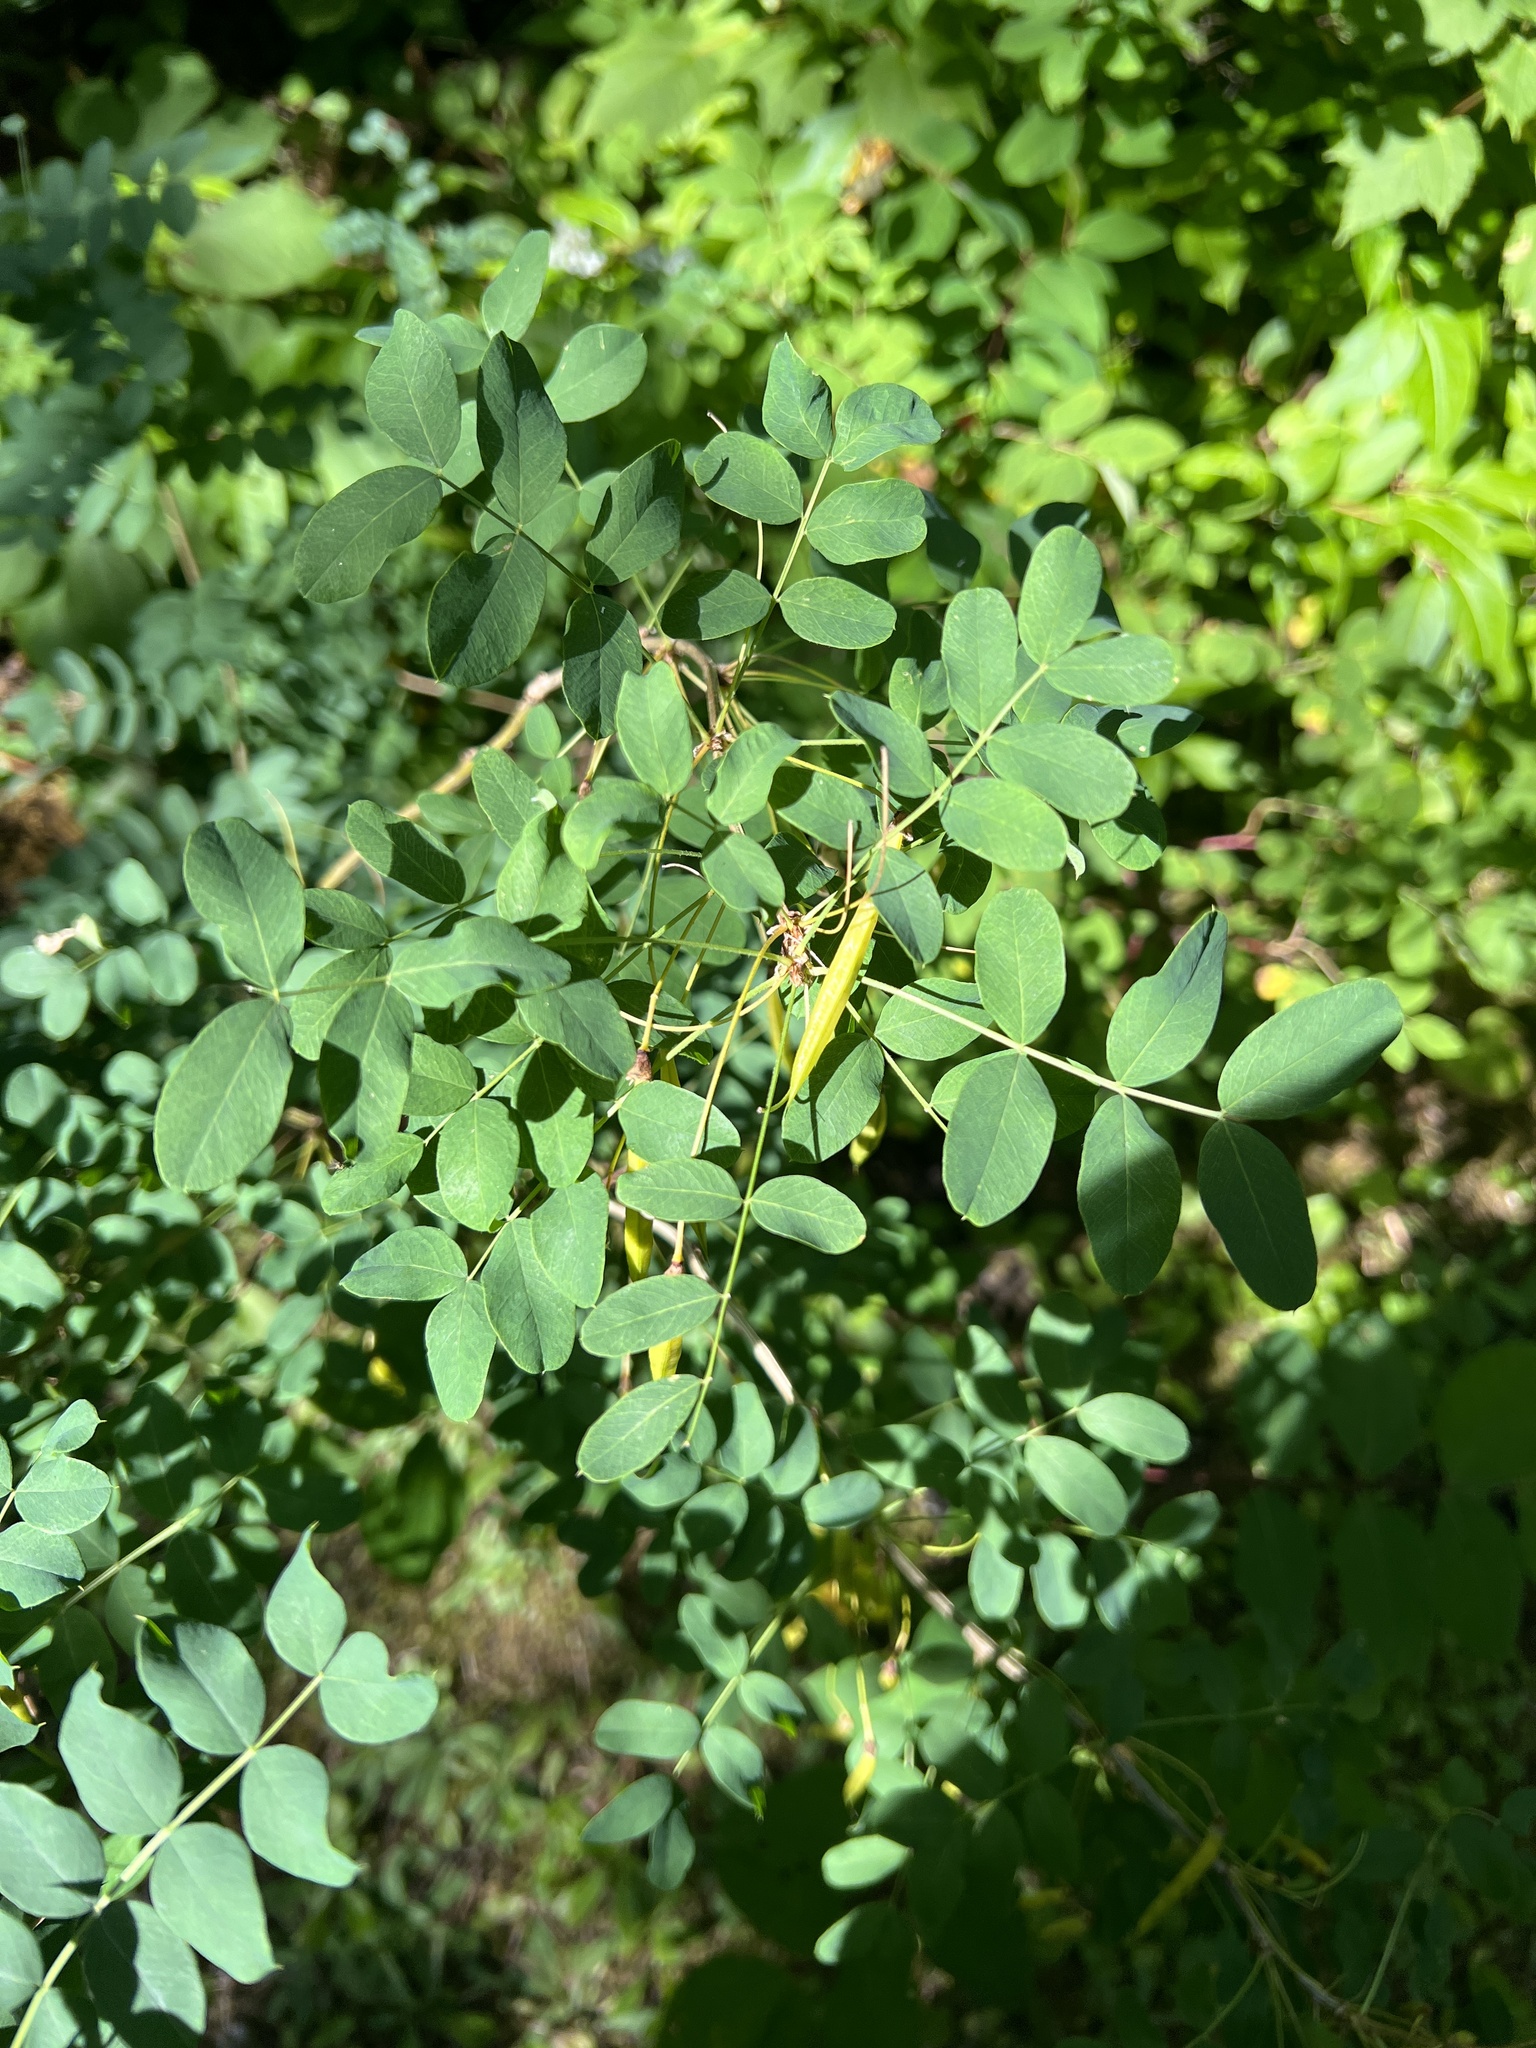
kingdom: Plantae
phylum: Tracheophyta
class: Magnoliopsida
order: Fabales
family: Fabaceae
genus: Caragana
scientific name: Caragana arborescens
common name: Siberian peashrub
